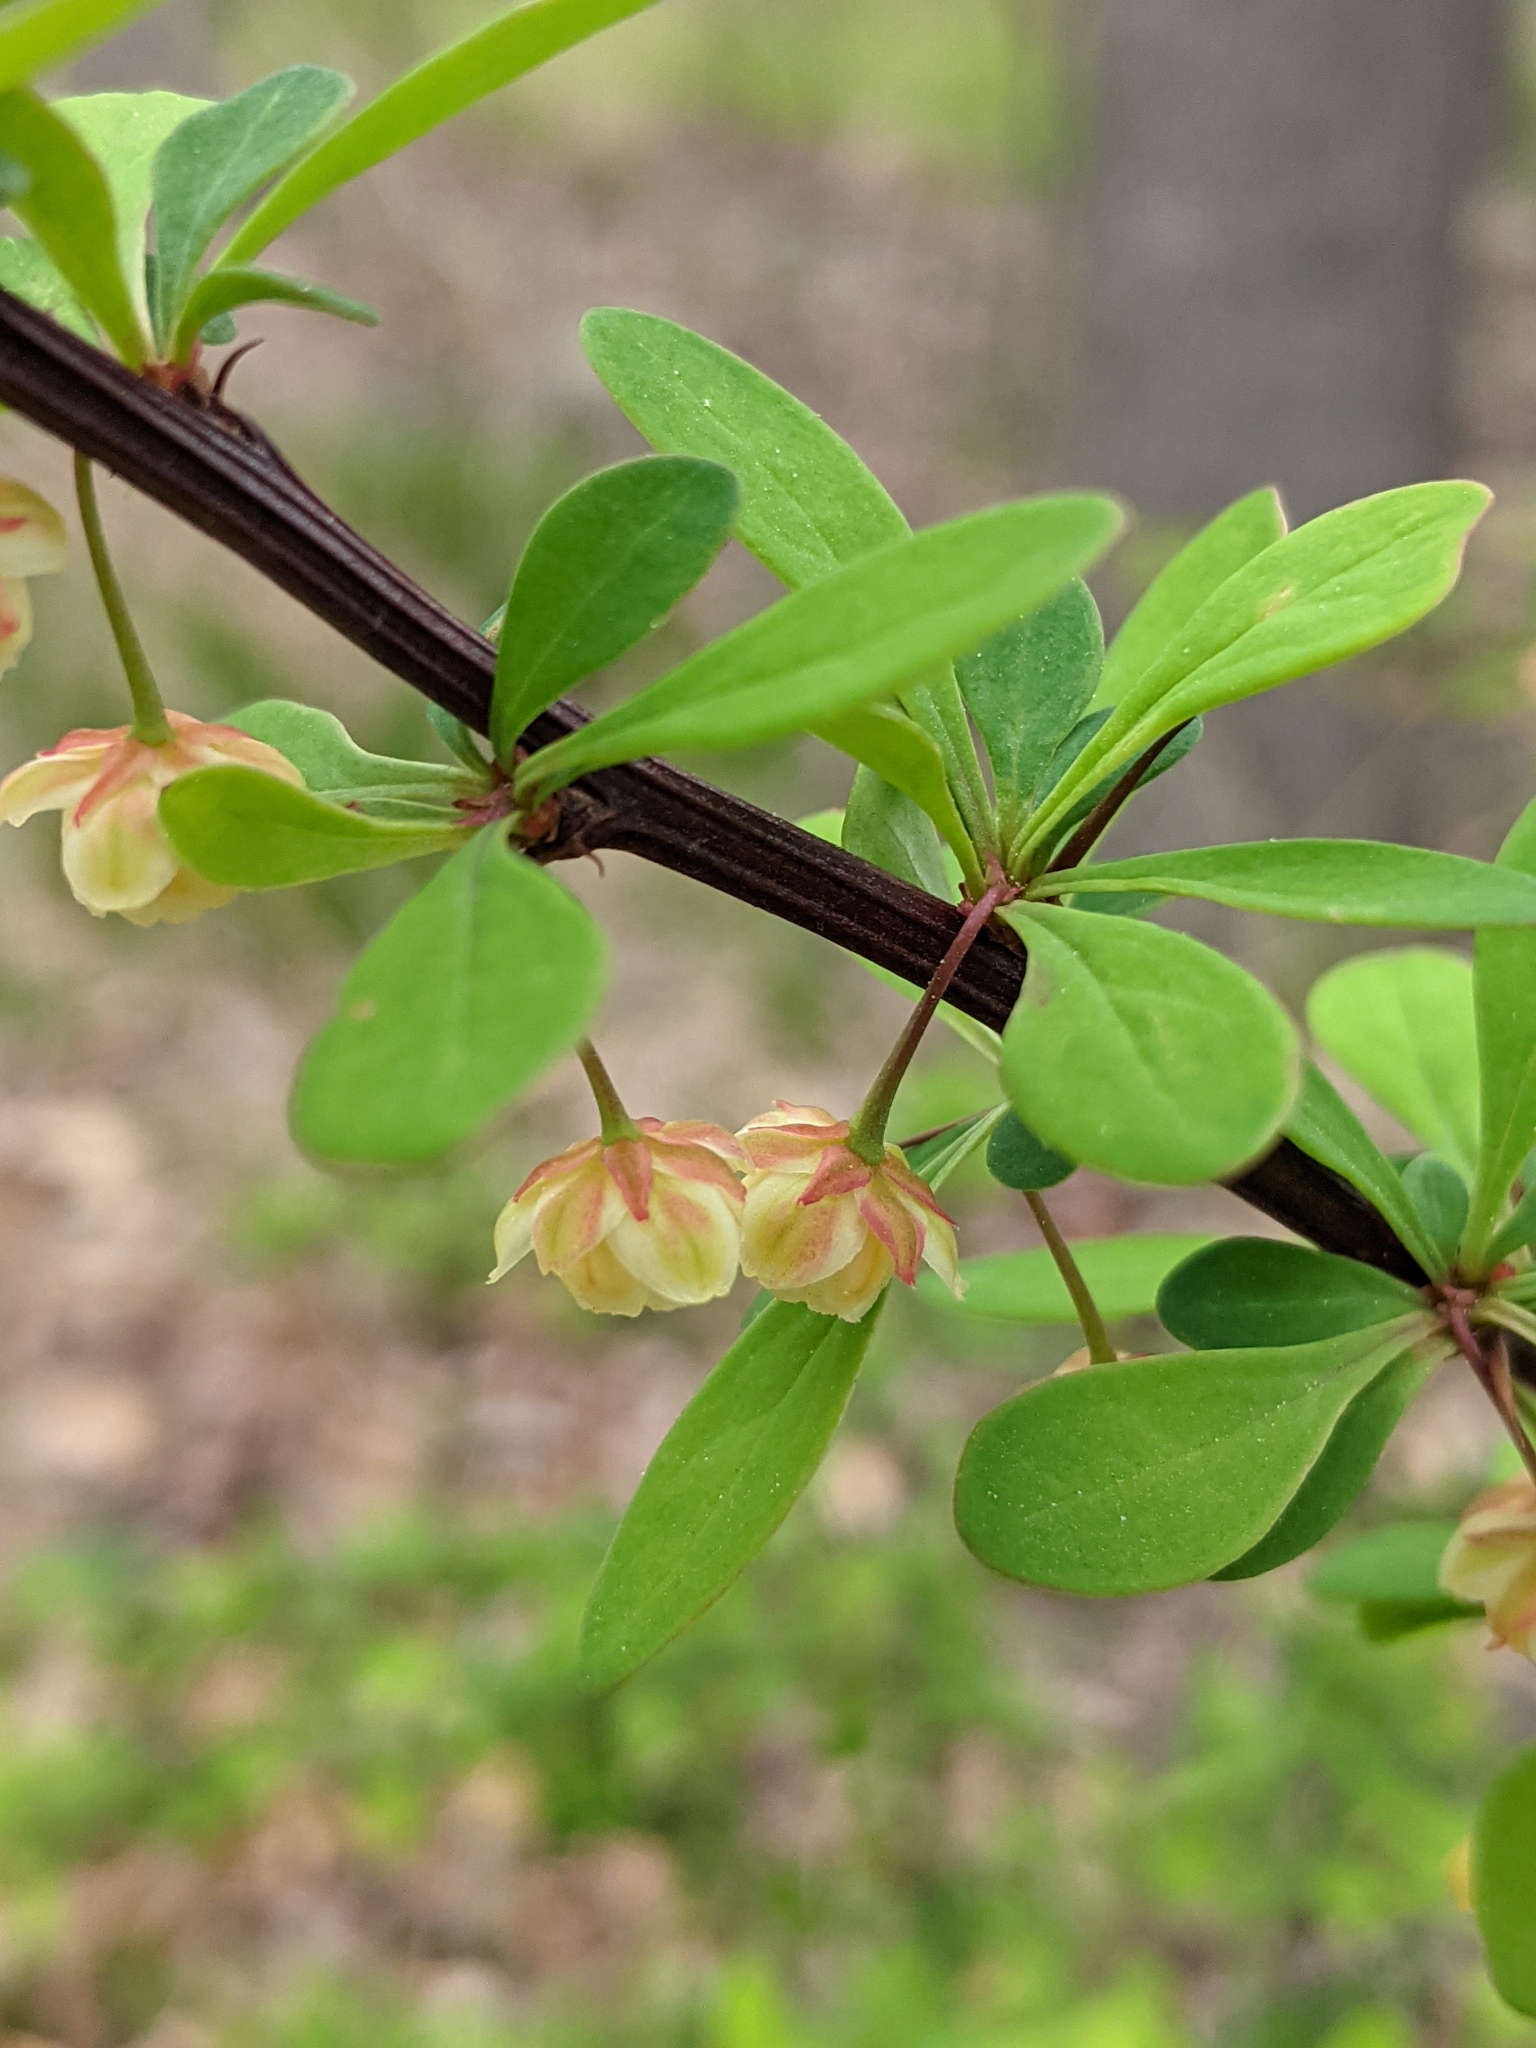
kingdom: Plantae
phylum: Tracheophyta
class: Magnoliopsida
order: Ranunculales
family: Berberidaceae
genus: Berberis
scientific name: Berberis thunbergii
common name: Japanese barberry
